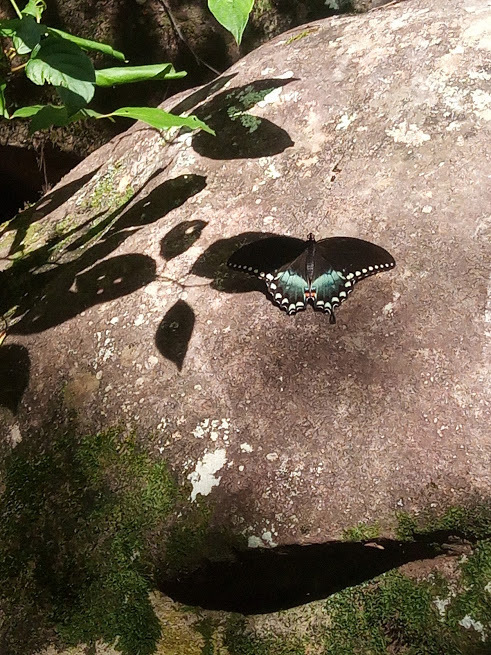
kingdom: Animalia
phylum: Arthropoda
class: Insecta
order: Lepidoptera
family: Papilionidae
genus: Papilio
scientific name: Papilio troilus
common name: Spicebush swallowtail
